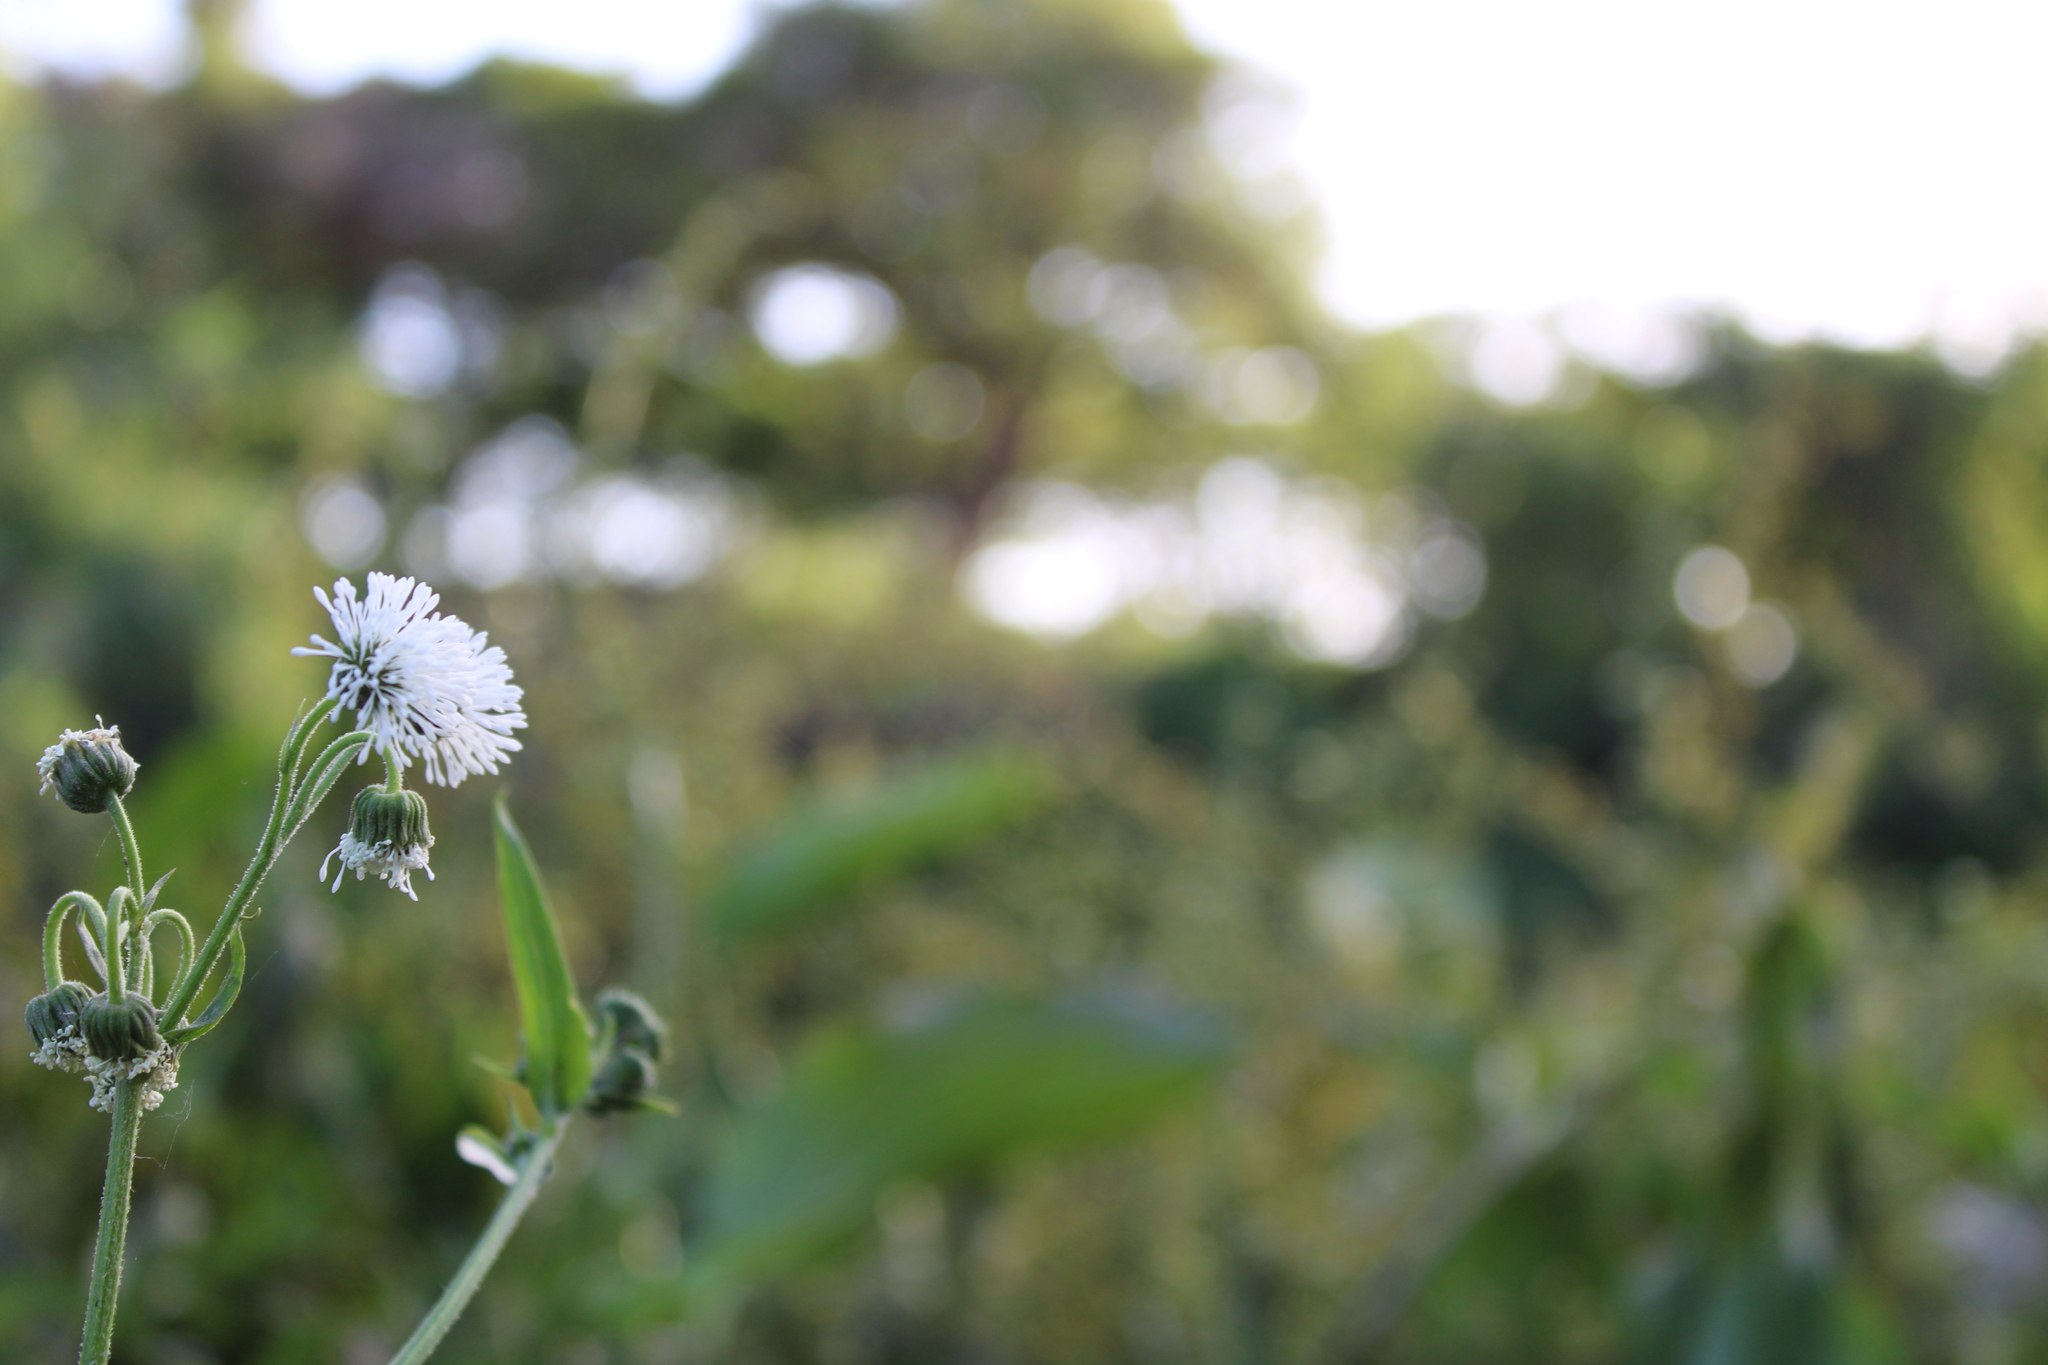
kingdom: Plantae
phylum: Tracheophyta
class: Magnoliopsida
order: Asterales
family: Asteraceae
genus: Gymnocoronis
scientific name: Gymnocoronis spilanthoides
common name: Senegal teaplant
